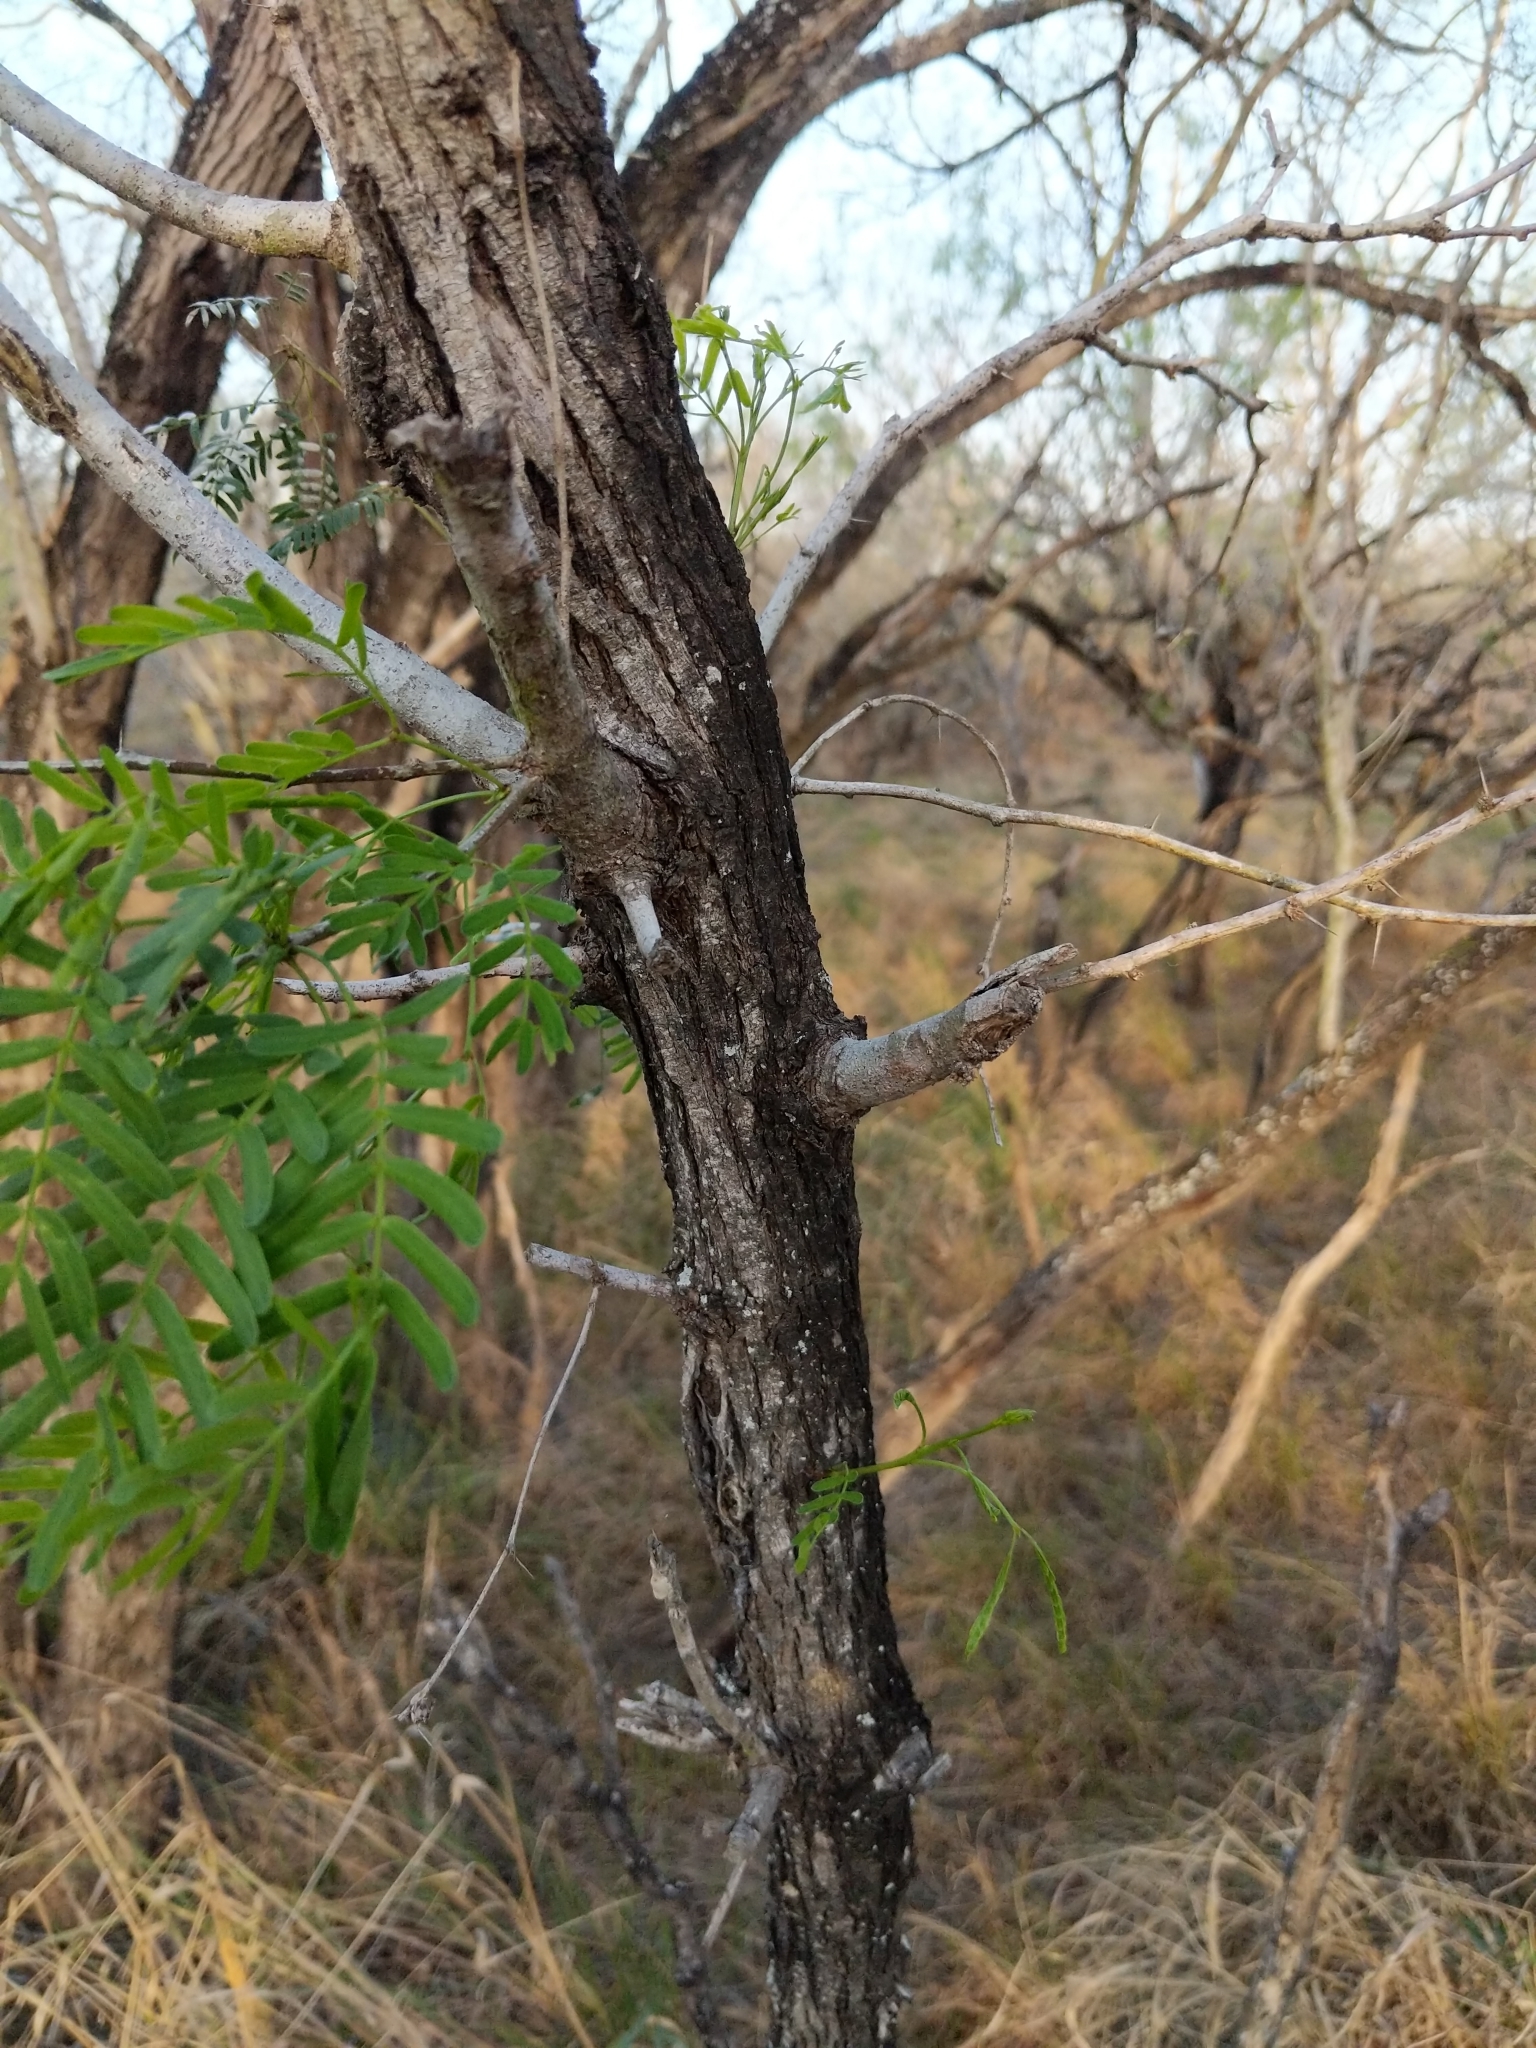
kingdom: Plantae
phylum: Tracheophyta
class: Magnoliopsida
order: Fabales
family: Fabaceae
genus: Prosopis
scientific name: Prosopis glandulosa
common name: Honey mesquite
